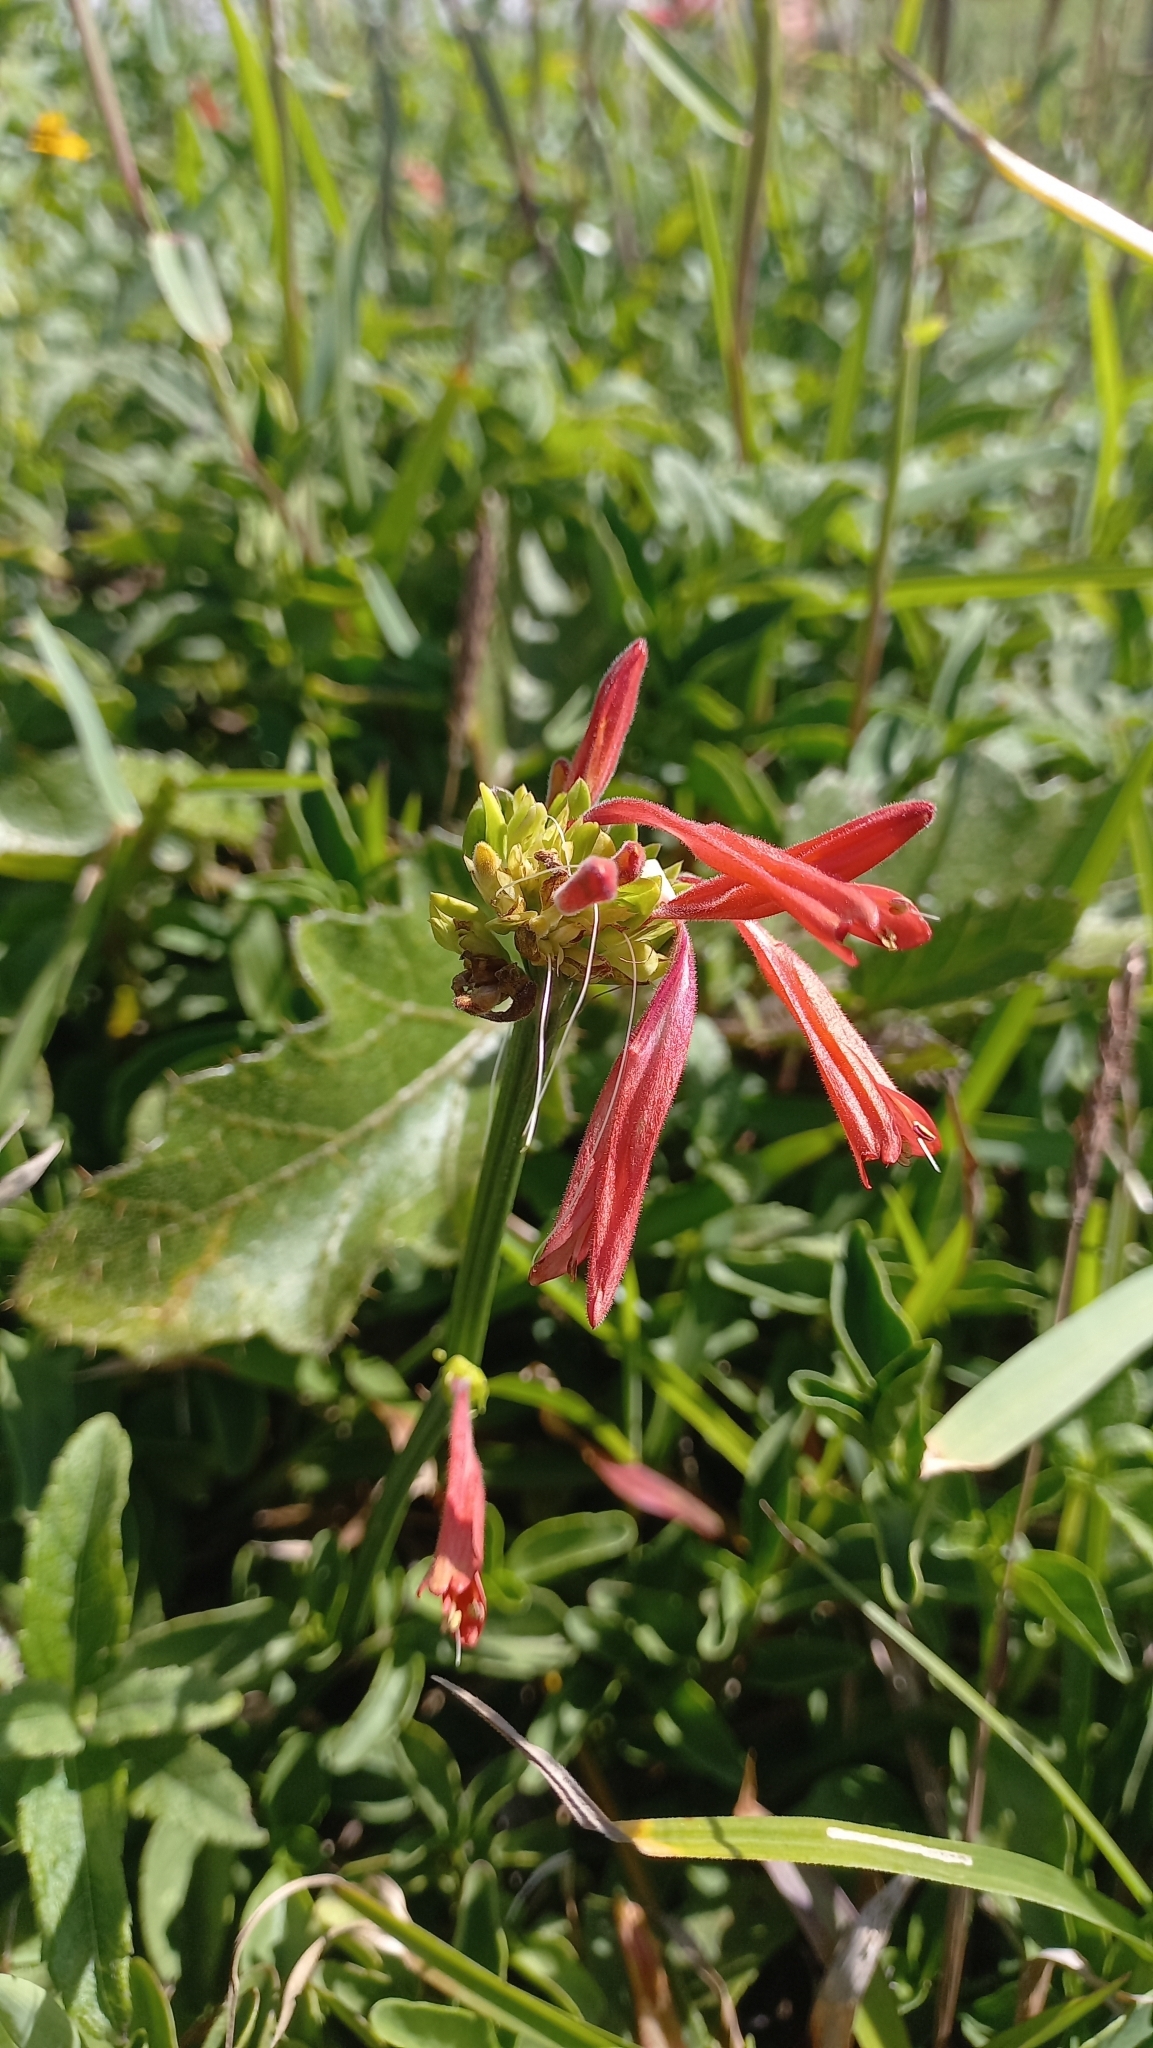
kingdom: Plantae
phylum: Tracheophyta
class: Magnoliopsida
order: Lamiales
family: Acanthaceae
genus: Dicliptera
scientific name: Dicliptera squarrosa
